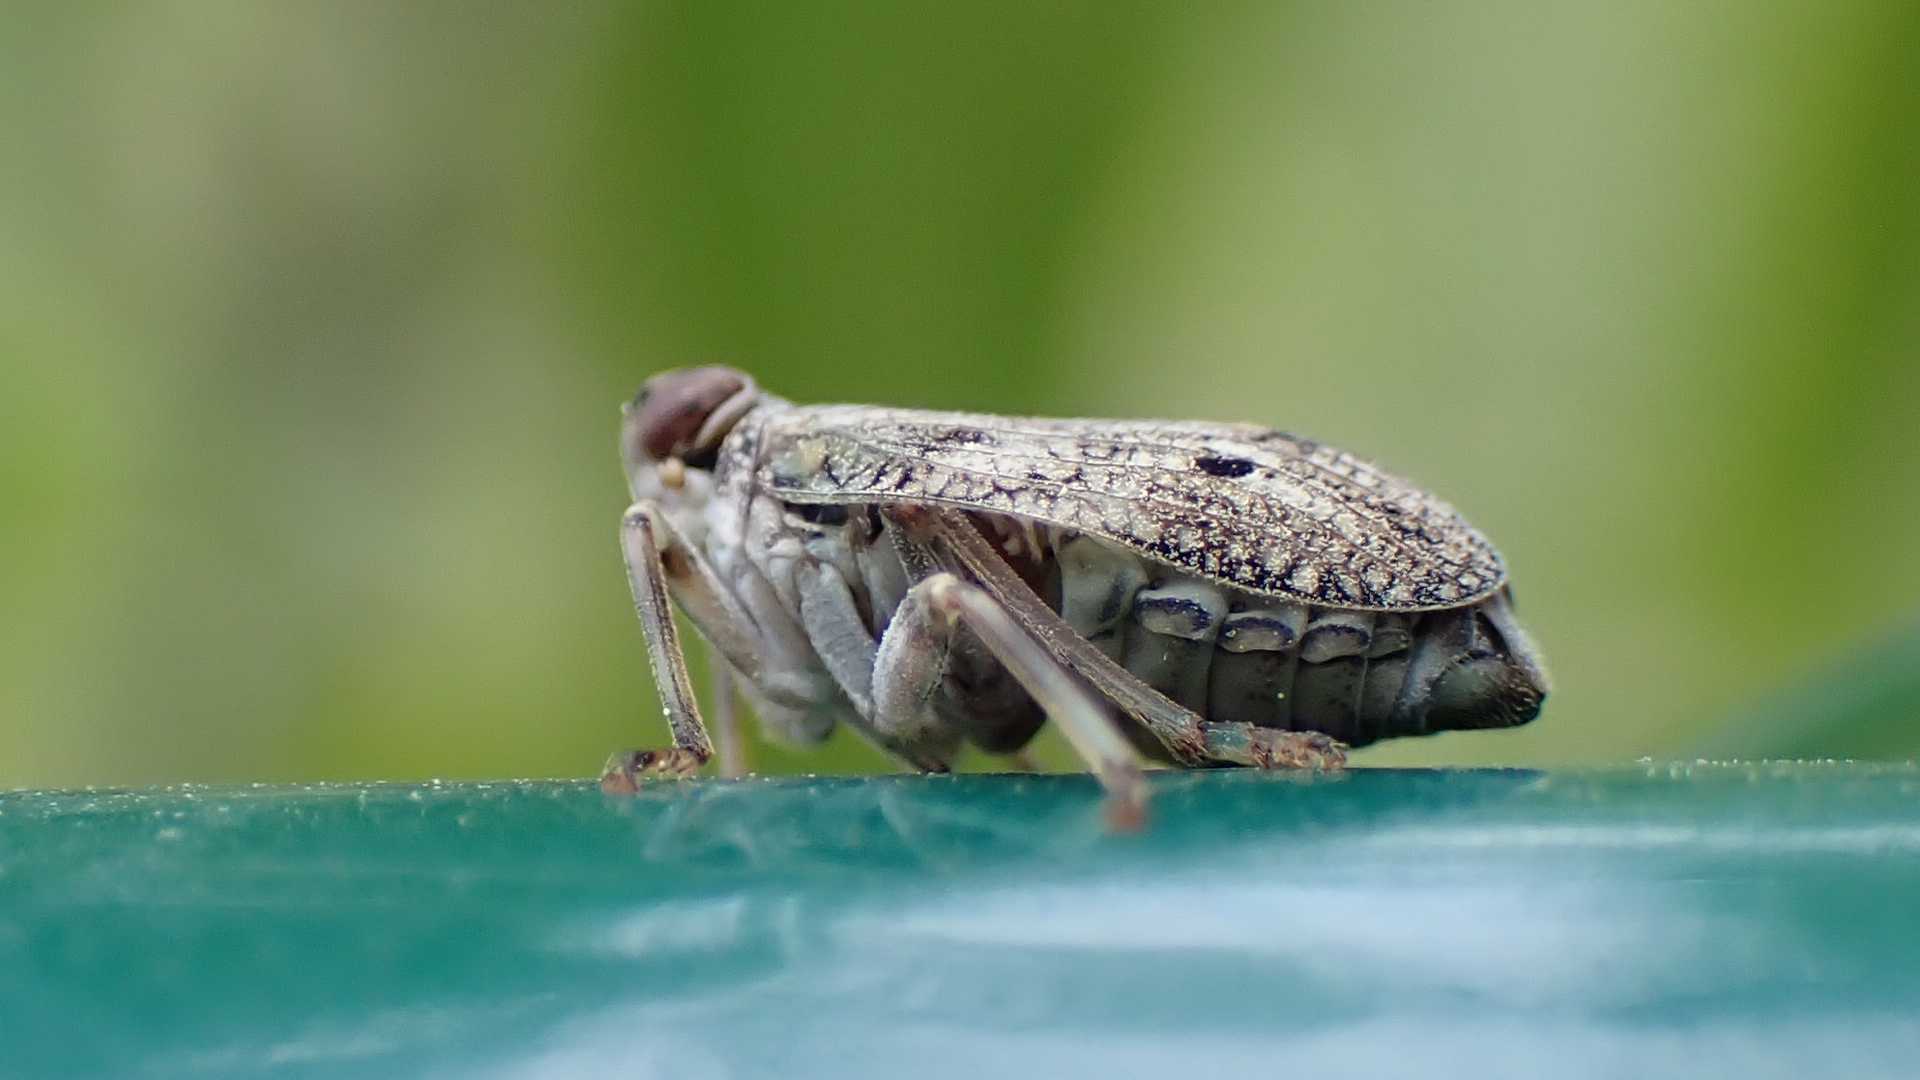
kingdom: Animalia
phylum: Arthropoda
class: Insecta
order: Hemiptera
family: Issidae
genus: Issus
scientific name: Issus coleoptratus
